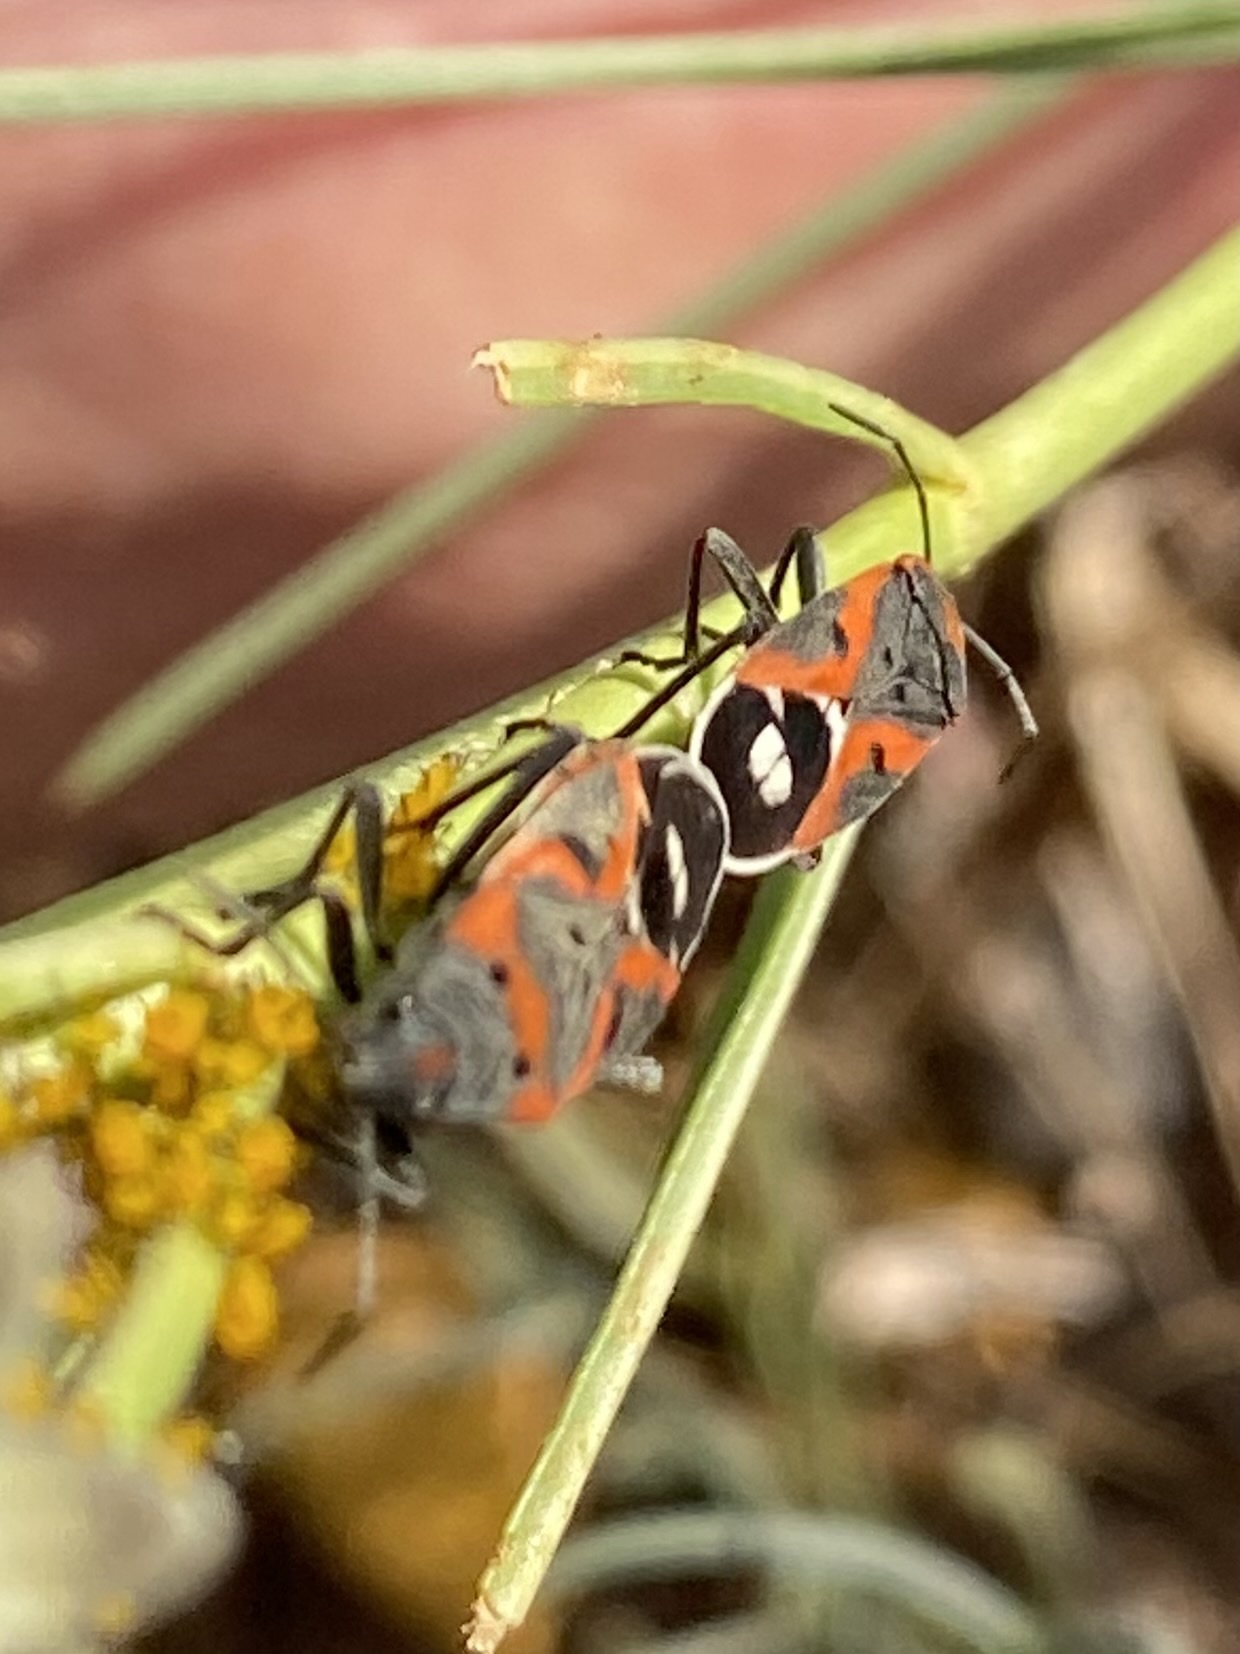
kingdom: Animalia
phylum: Arthropoda
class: Insecta
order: Hemiptera
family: Lygaeidae
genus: Lygaeus
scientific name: Lygaeus kalmii
